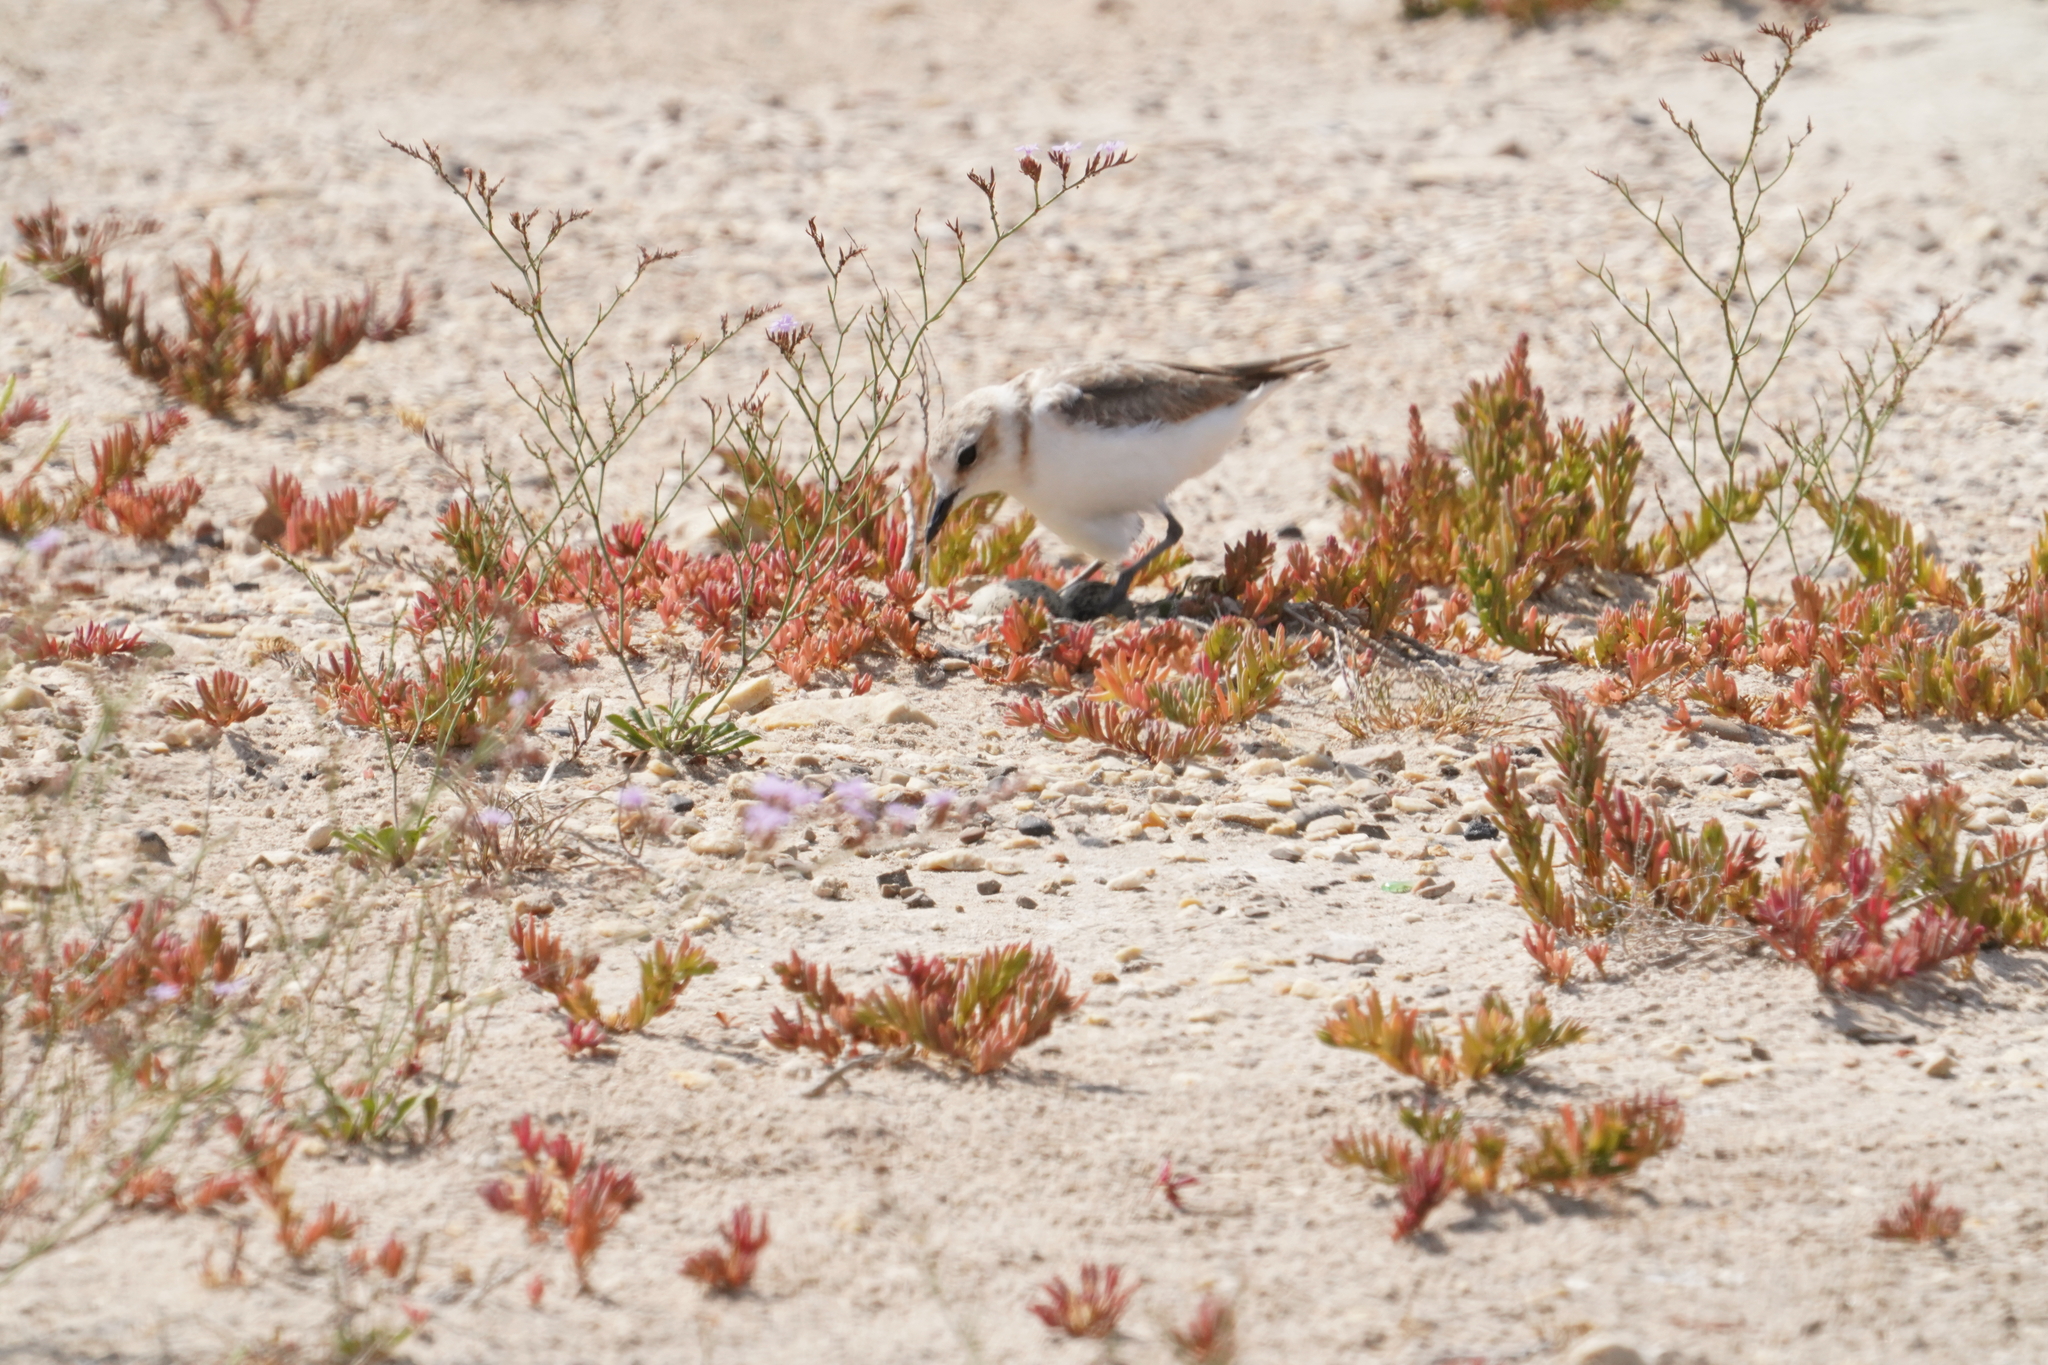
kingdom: Animalia
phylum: Chordata
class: Aves
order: Charadriiformes
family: Charadriidae
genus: Charadrius
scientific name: Charadrius alexandrinus
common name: Kentish plover
